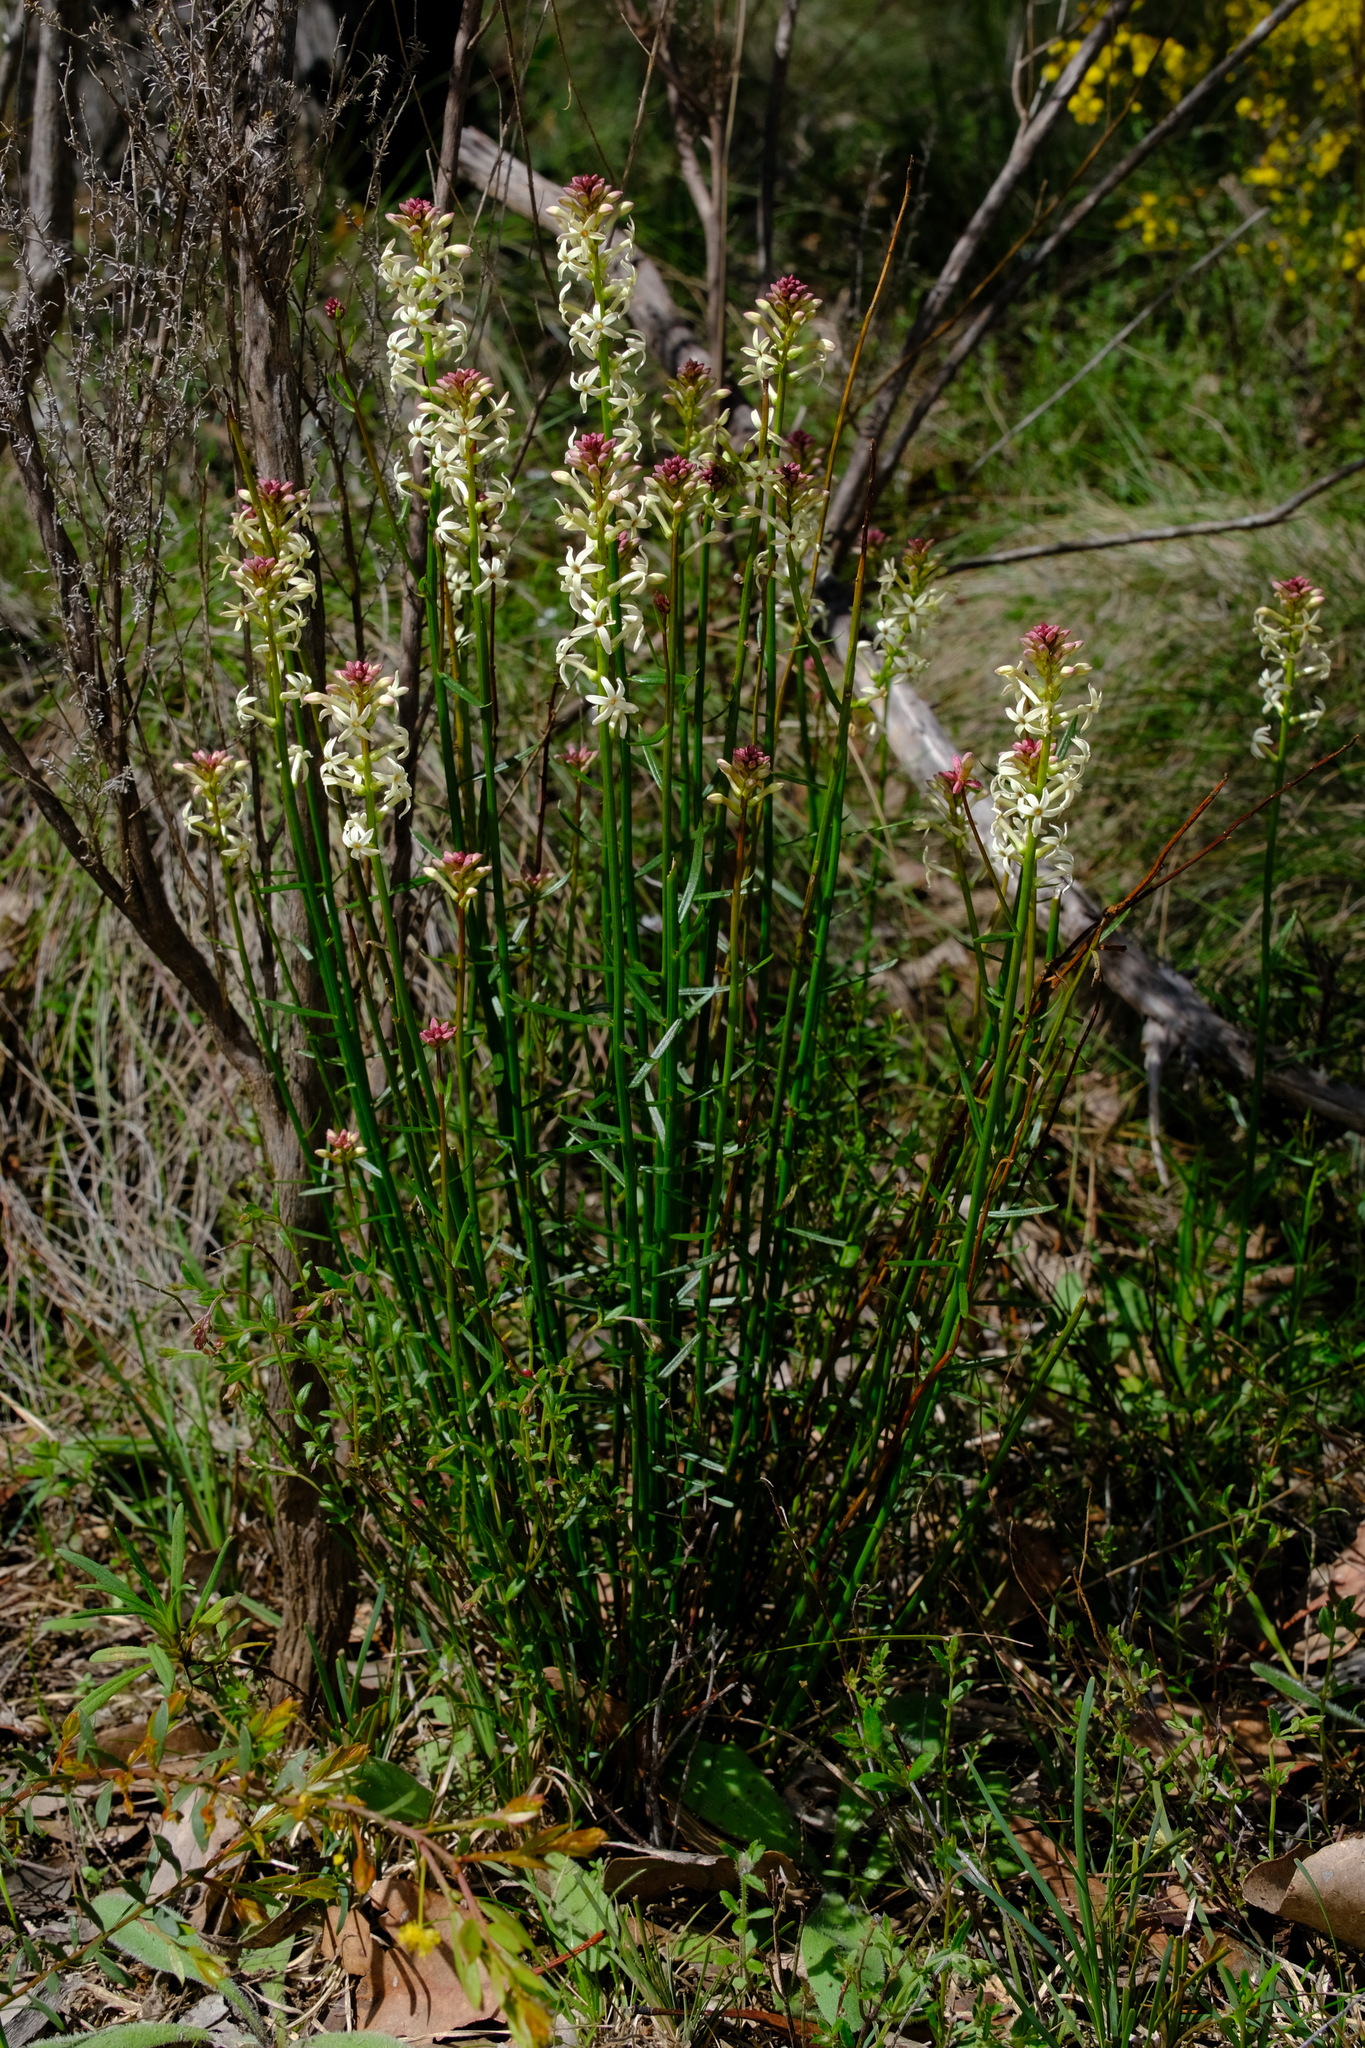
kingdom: Plantae
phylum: Tracheophyta
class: Magnoliopsida
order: Celastrales
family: Celastraceae
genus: Stackhousia
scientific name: Stackhousia monogyna
